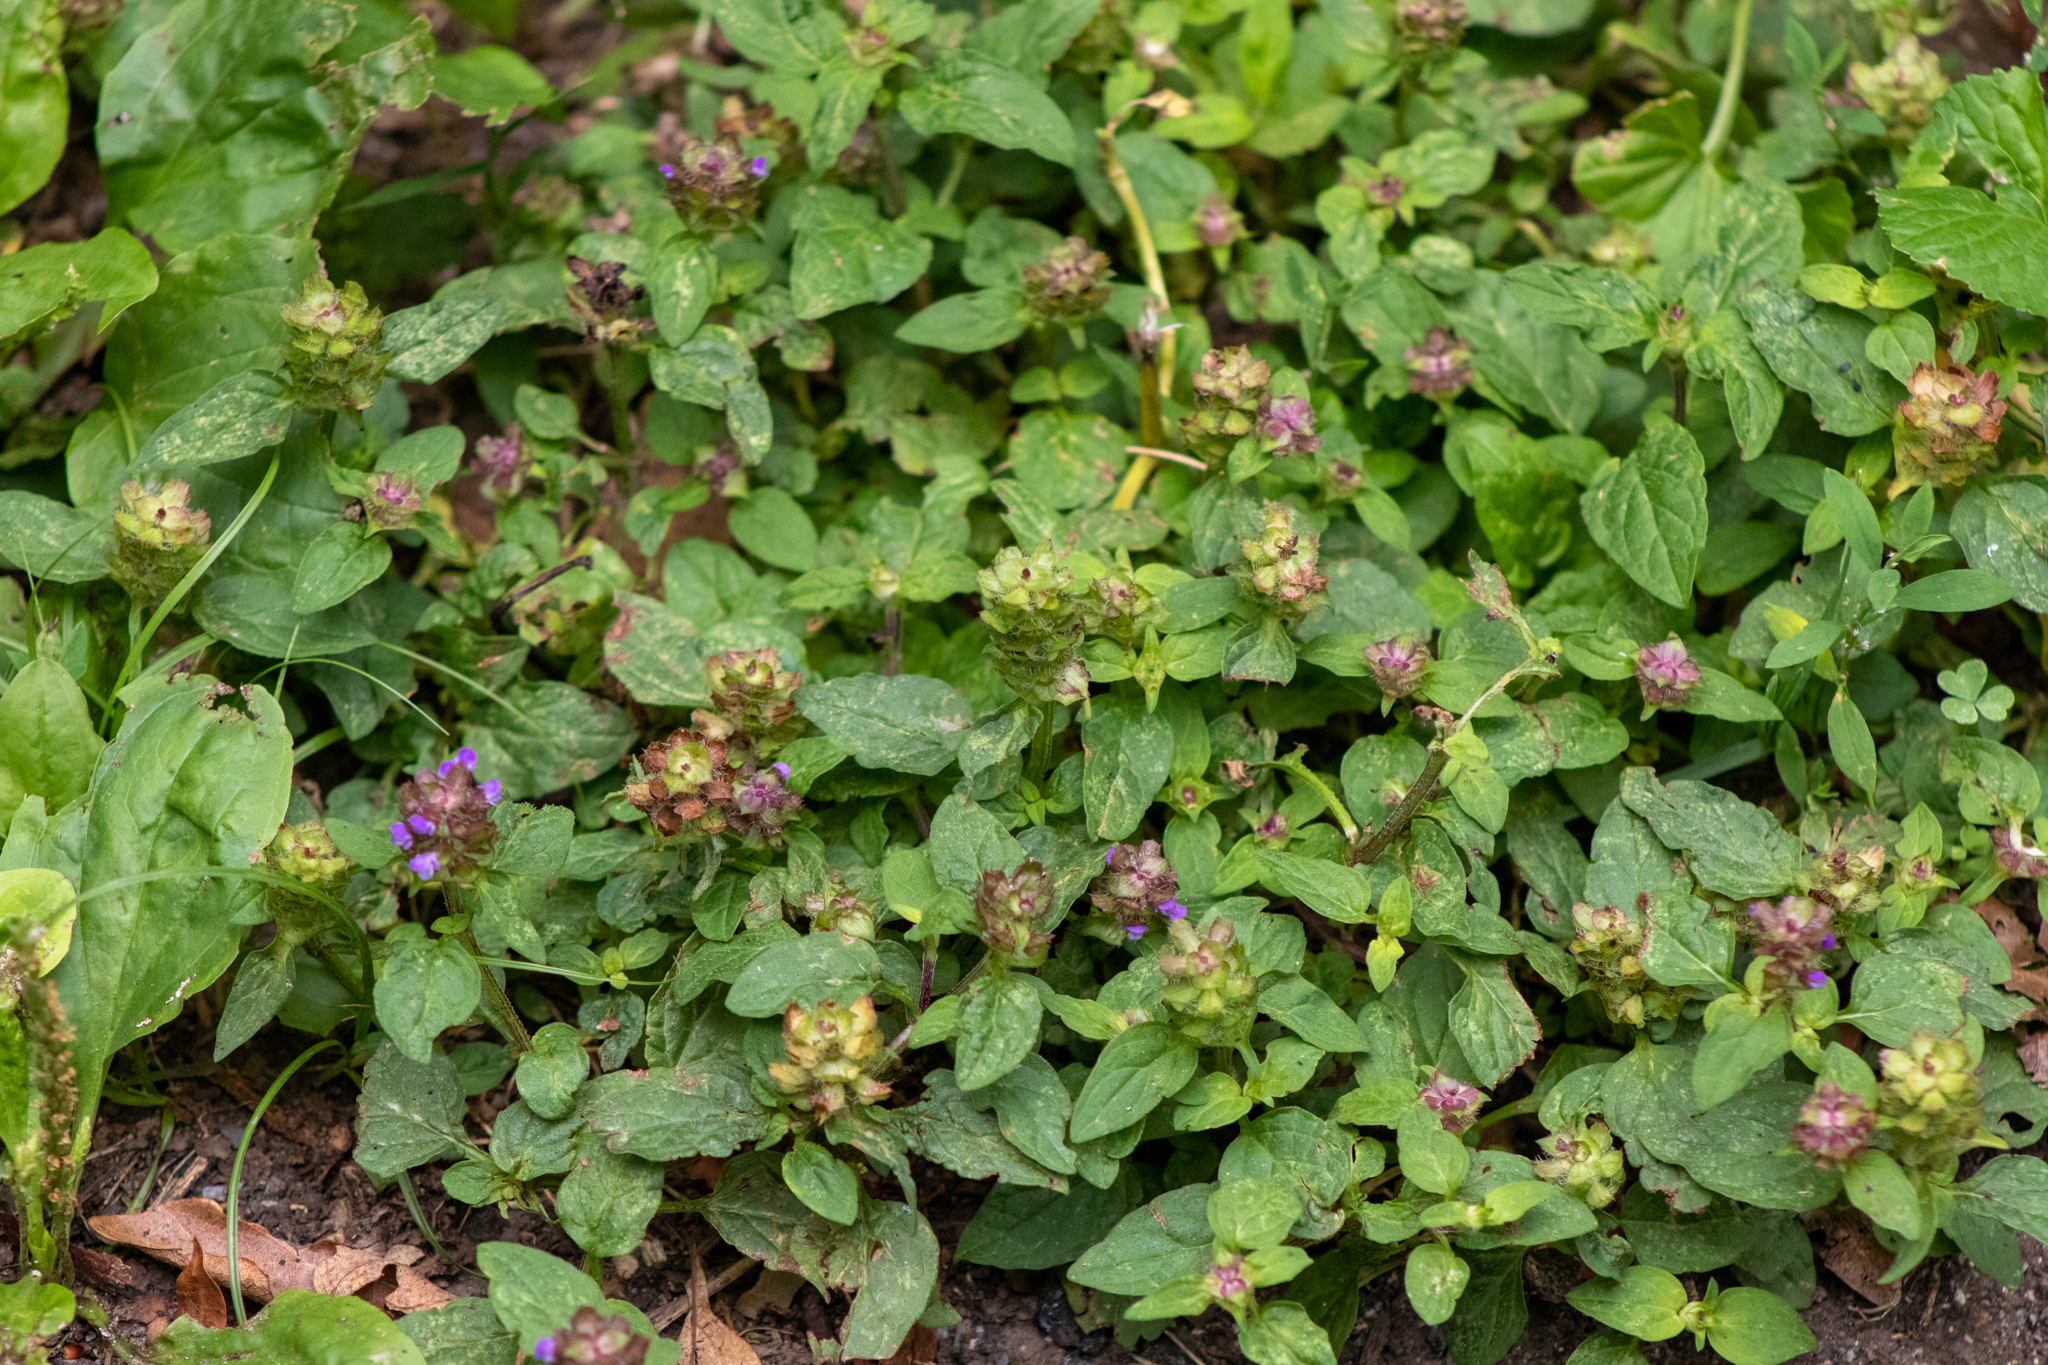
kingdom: Plantae
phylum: Tracheophyta
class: Magnoliopsida
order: Lamiales
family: Lamiaceae
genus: Prunella
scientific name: Prunella vulgaris
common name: Heal-all
